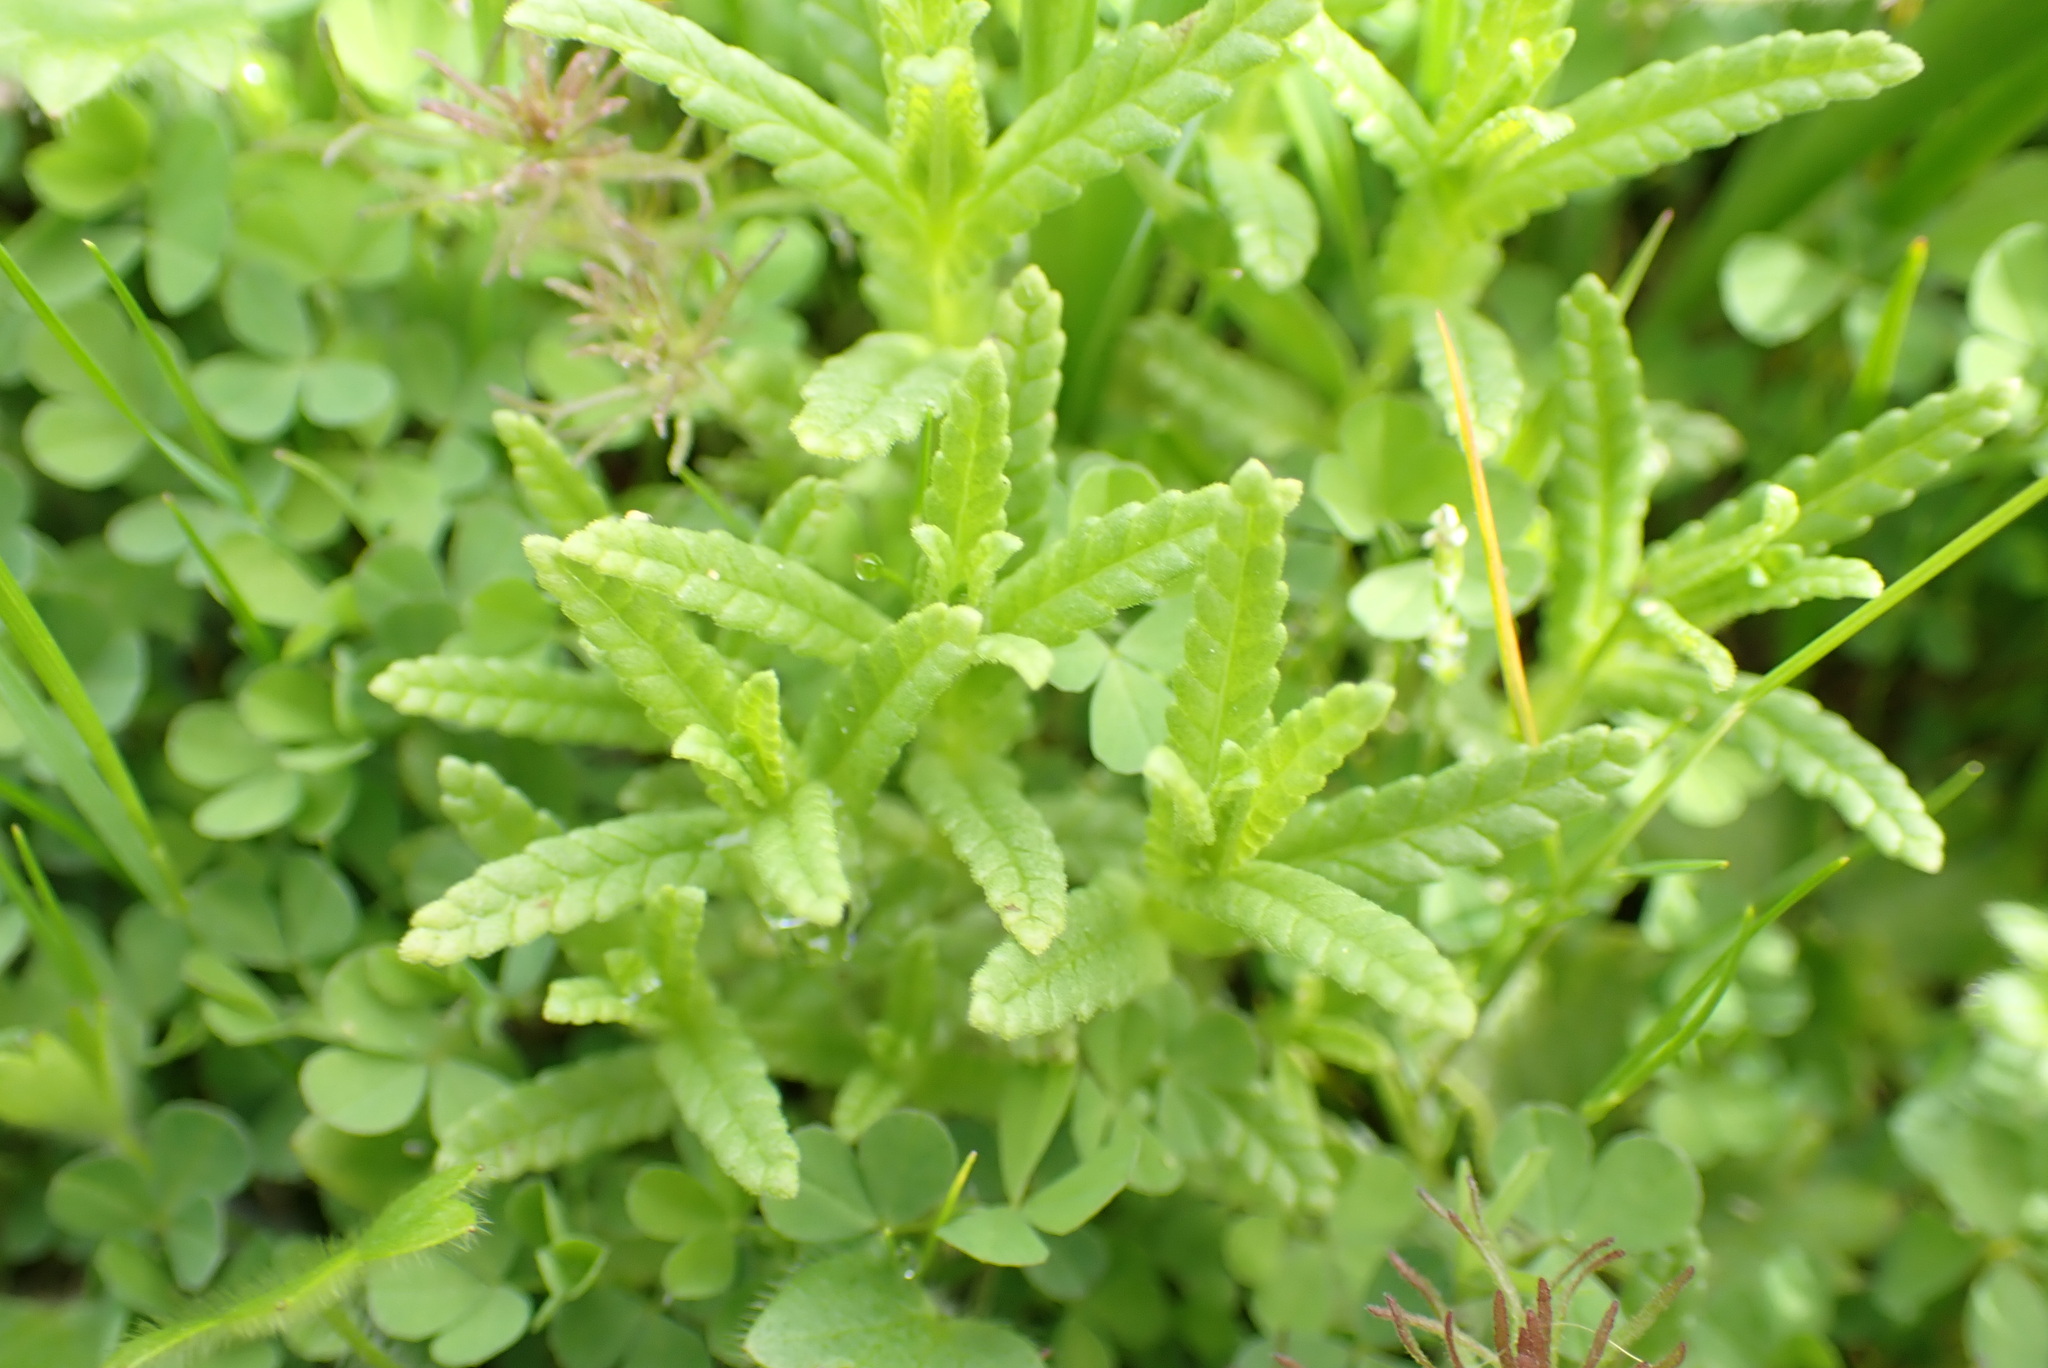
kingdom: Plantae
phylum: Tracheophyta
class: Magnoliopsida
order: Lamiales
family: Orobanchaceae
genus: Rhinanthus
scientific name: Rhinanthus minor
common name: Yellow-rattle
